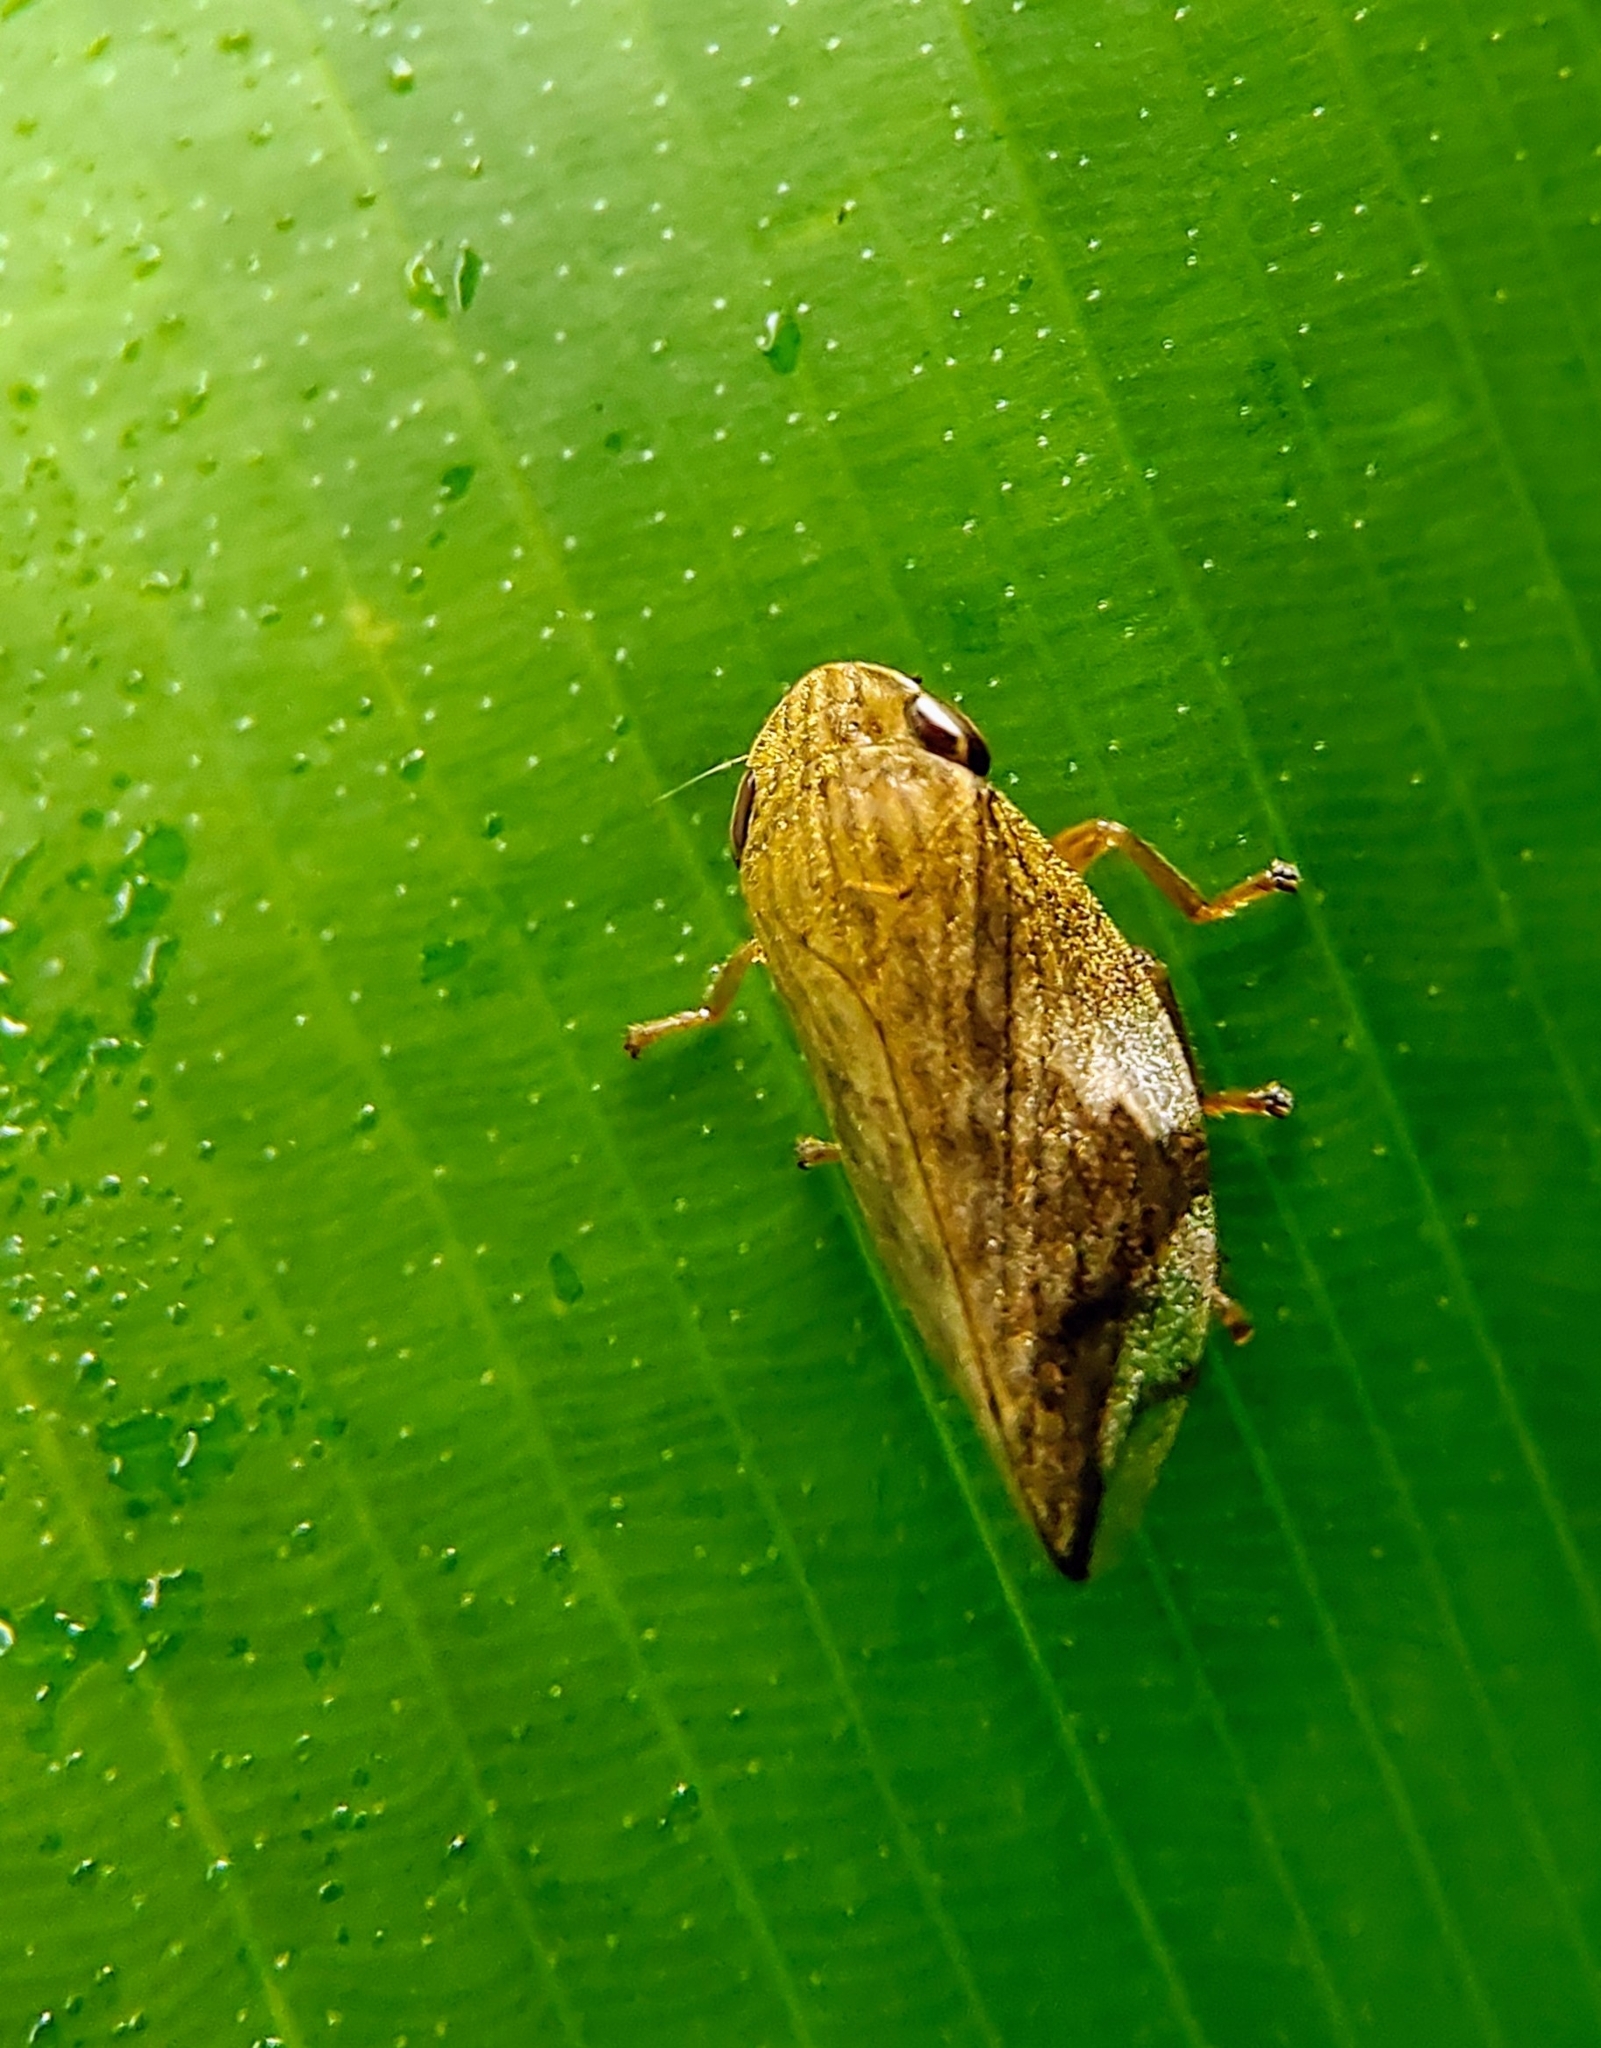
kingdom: Animalia
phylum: Arthropoda
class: Insecta
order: Hemiptera
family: Aphrophoridae
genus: Clovia
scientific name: Clovia conifera
